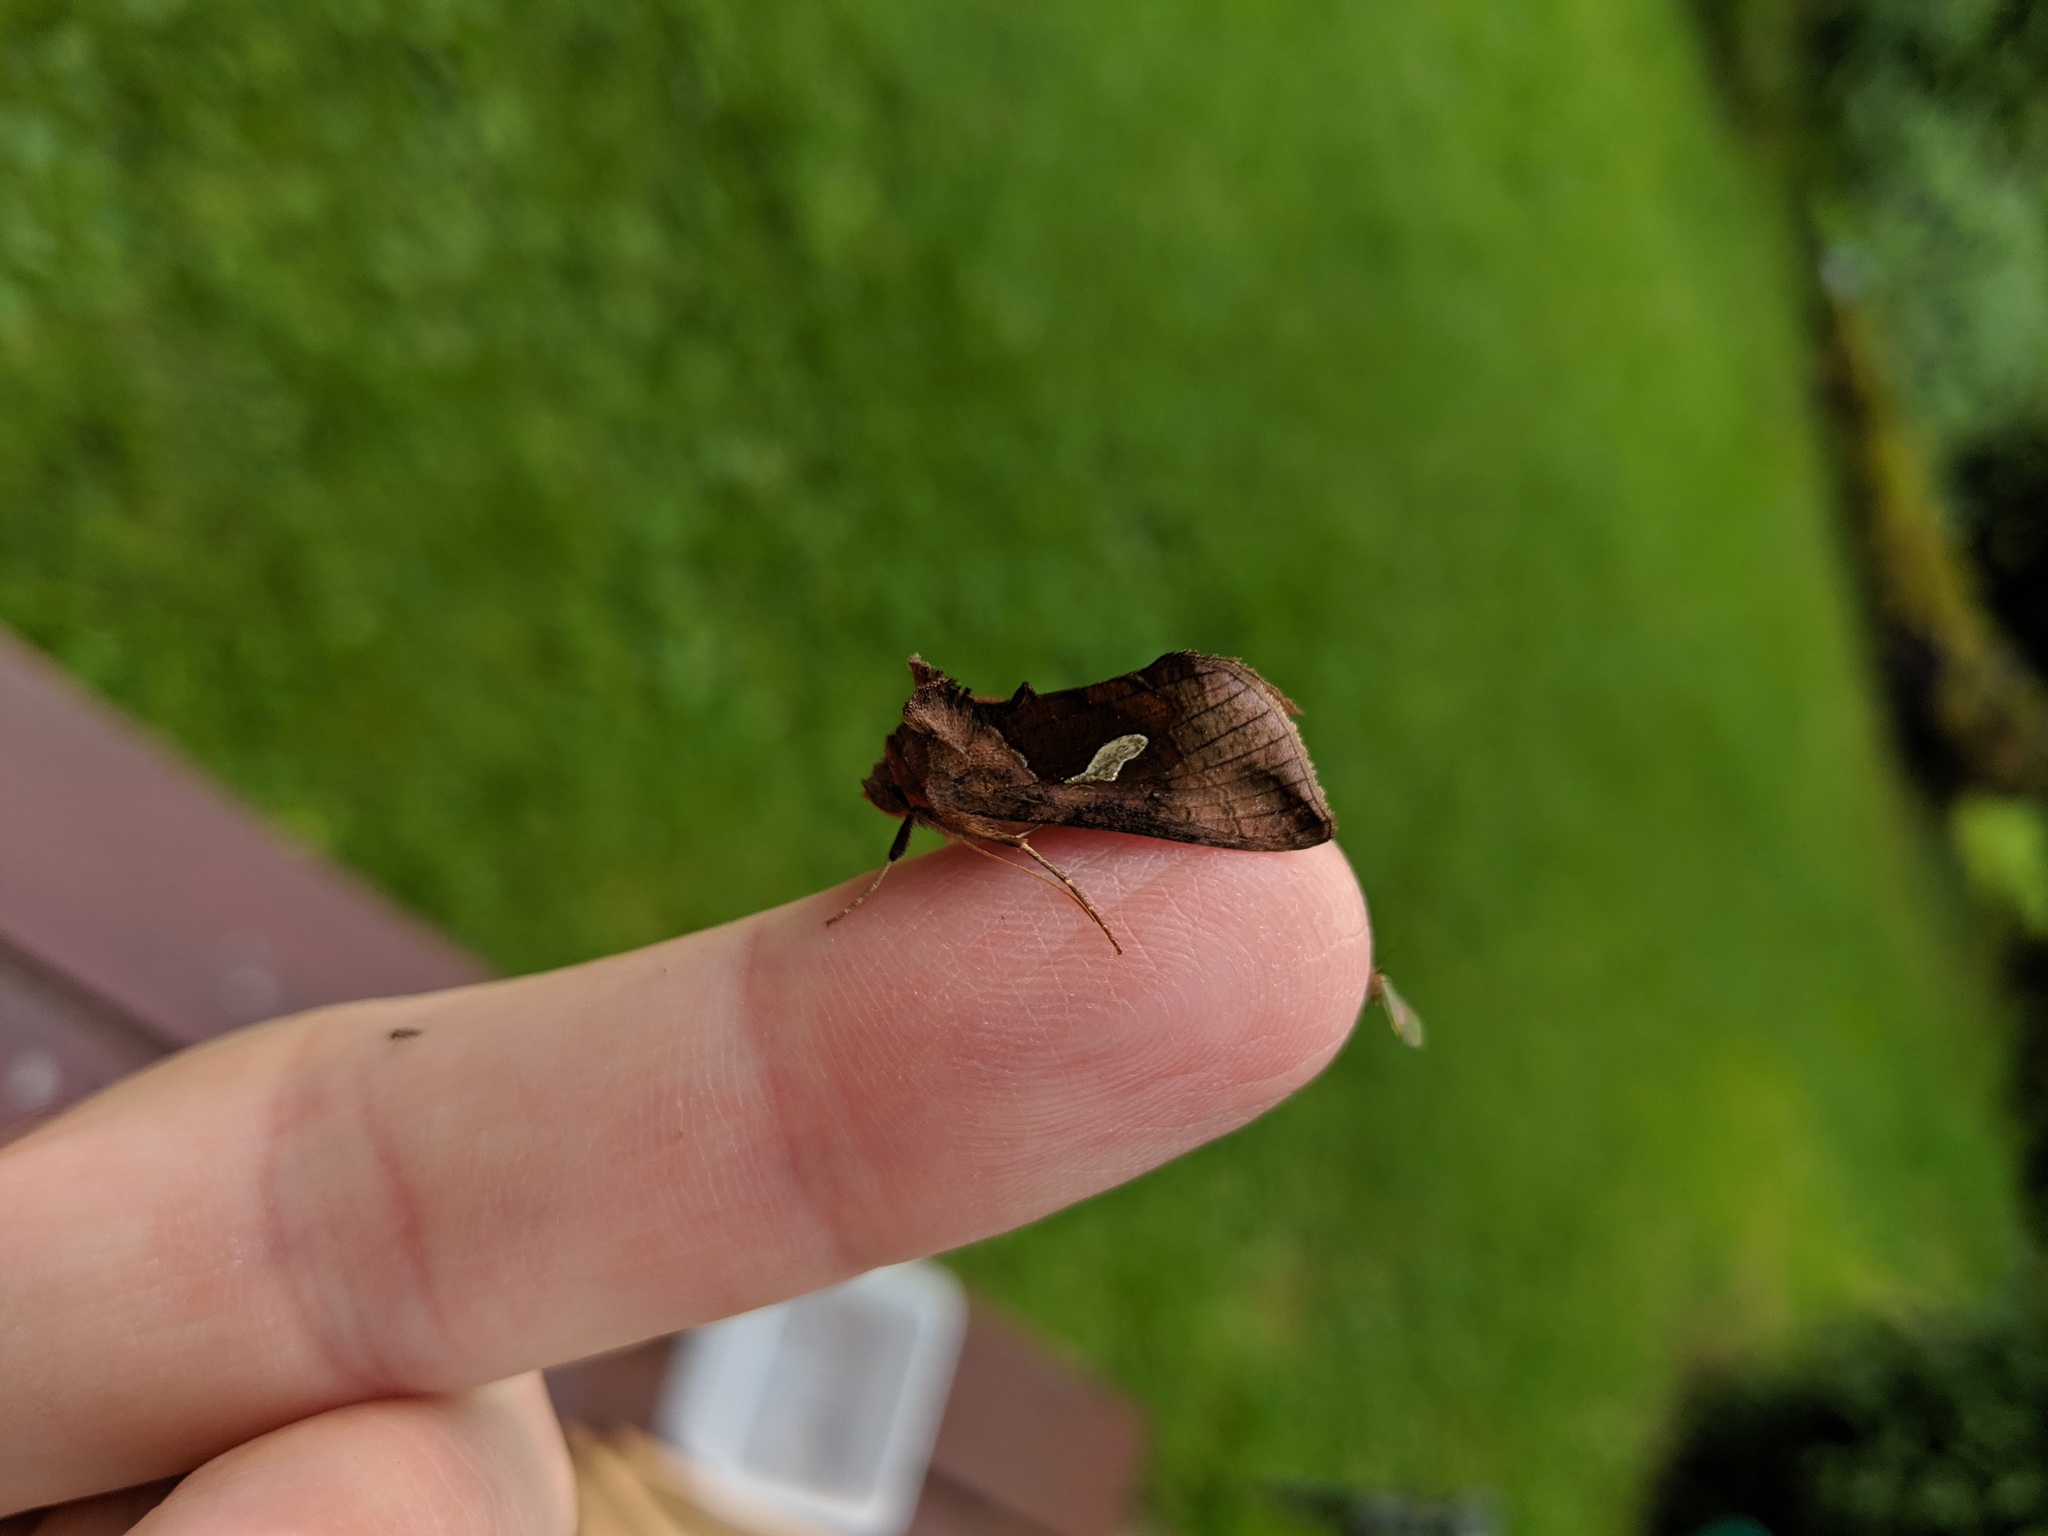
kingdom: Animalia
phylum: Arthropoda
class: Insecta
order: Lepidoptera
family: Noctuidae
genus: Autographa
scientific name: Autographa bractea
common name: Gold spangle
